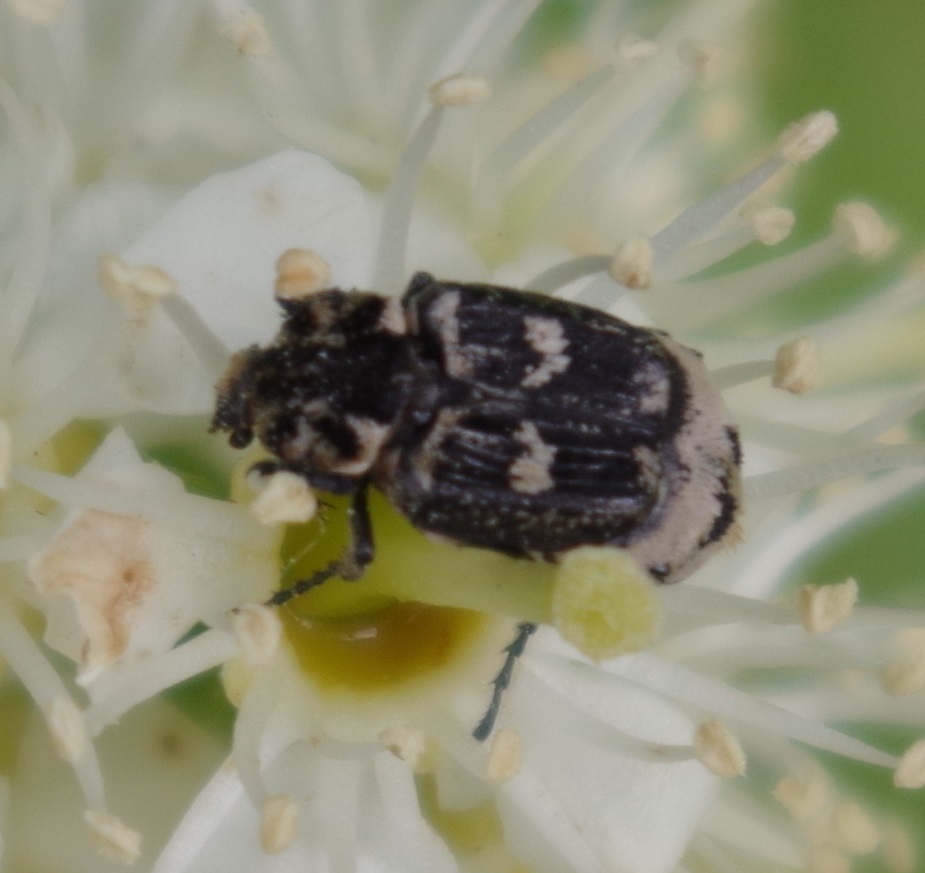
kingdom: Animalia
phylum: Arthropoda
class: Insecta
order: Coleoptera
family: Scarabaeidae
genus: Valgus
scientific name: Valgus hemipterus
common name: Bug flower chafer
